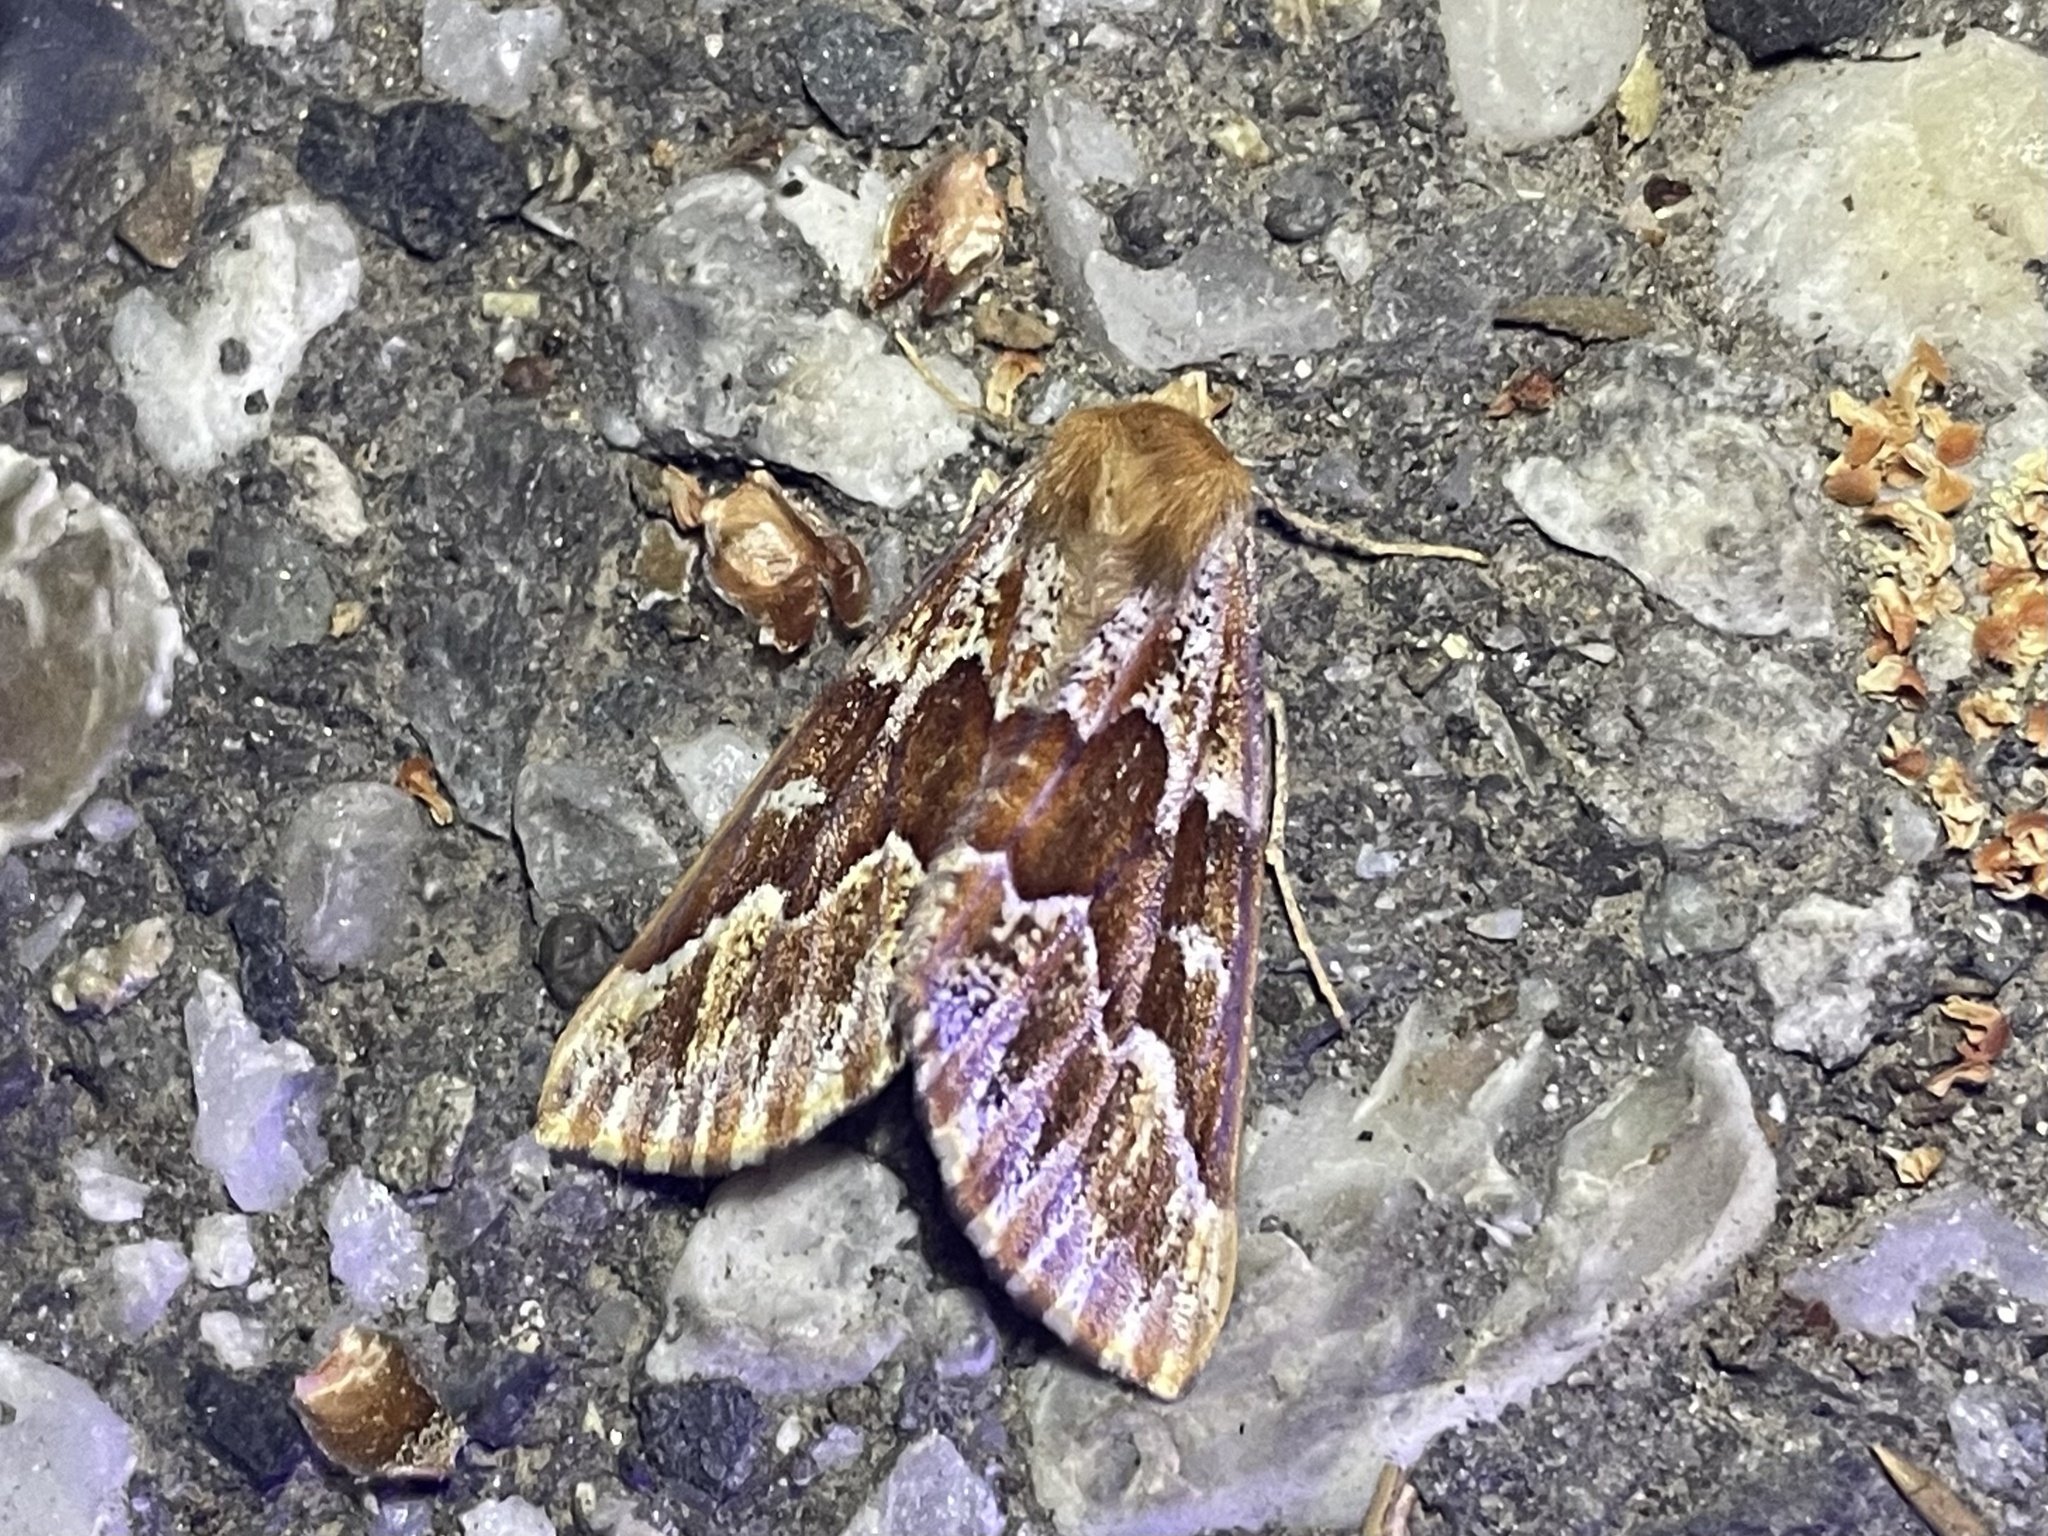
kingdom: Animalia
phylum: Arthropoda
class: Insecta
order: Lepidoptera
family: Geometridae
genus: Caripeta
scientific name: Caripeta aequaliaria
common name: Red girdle moth
